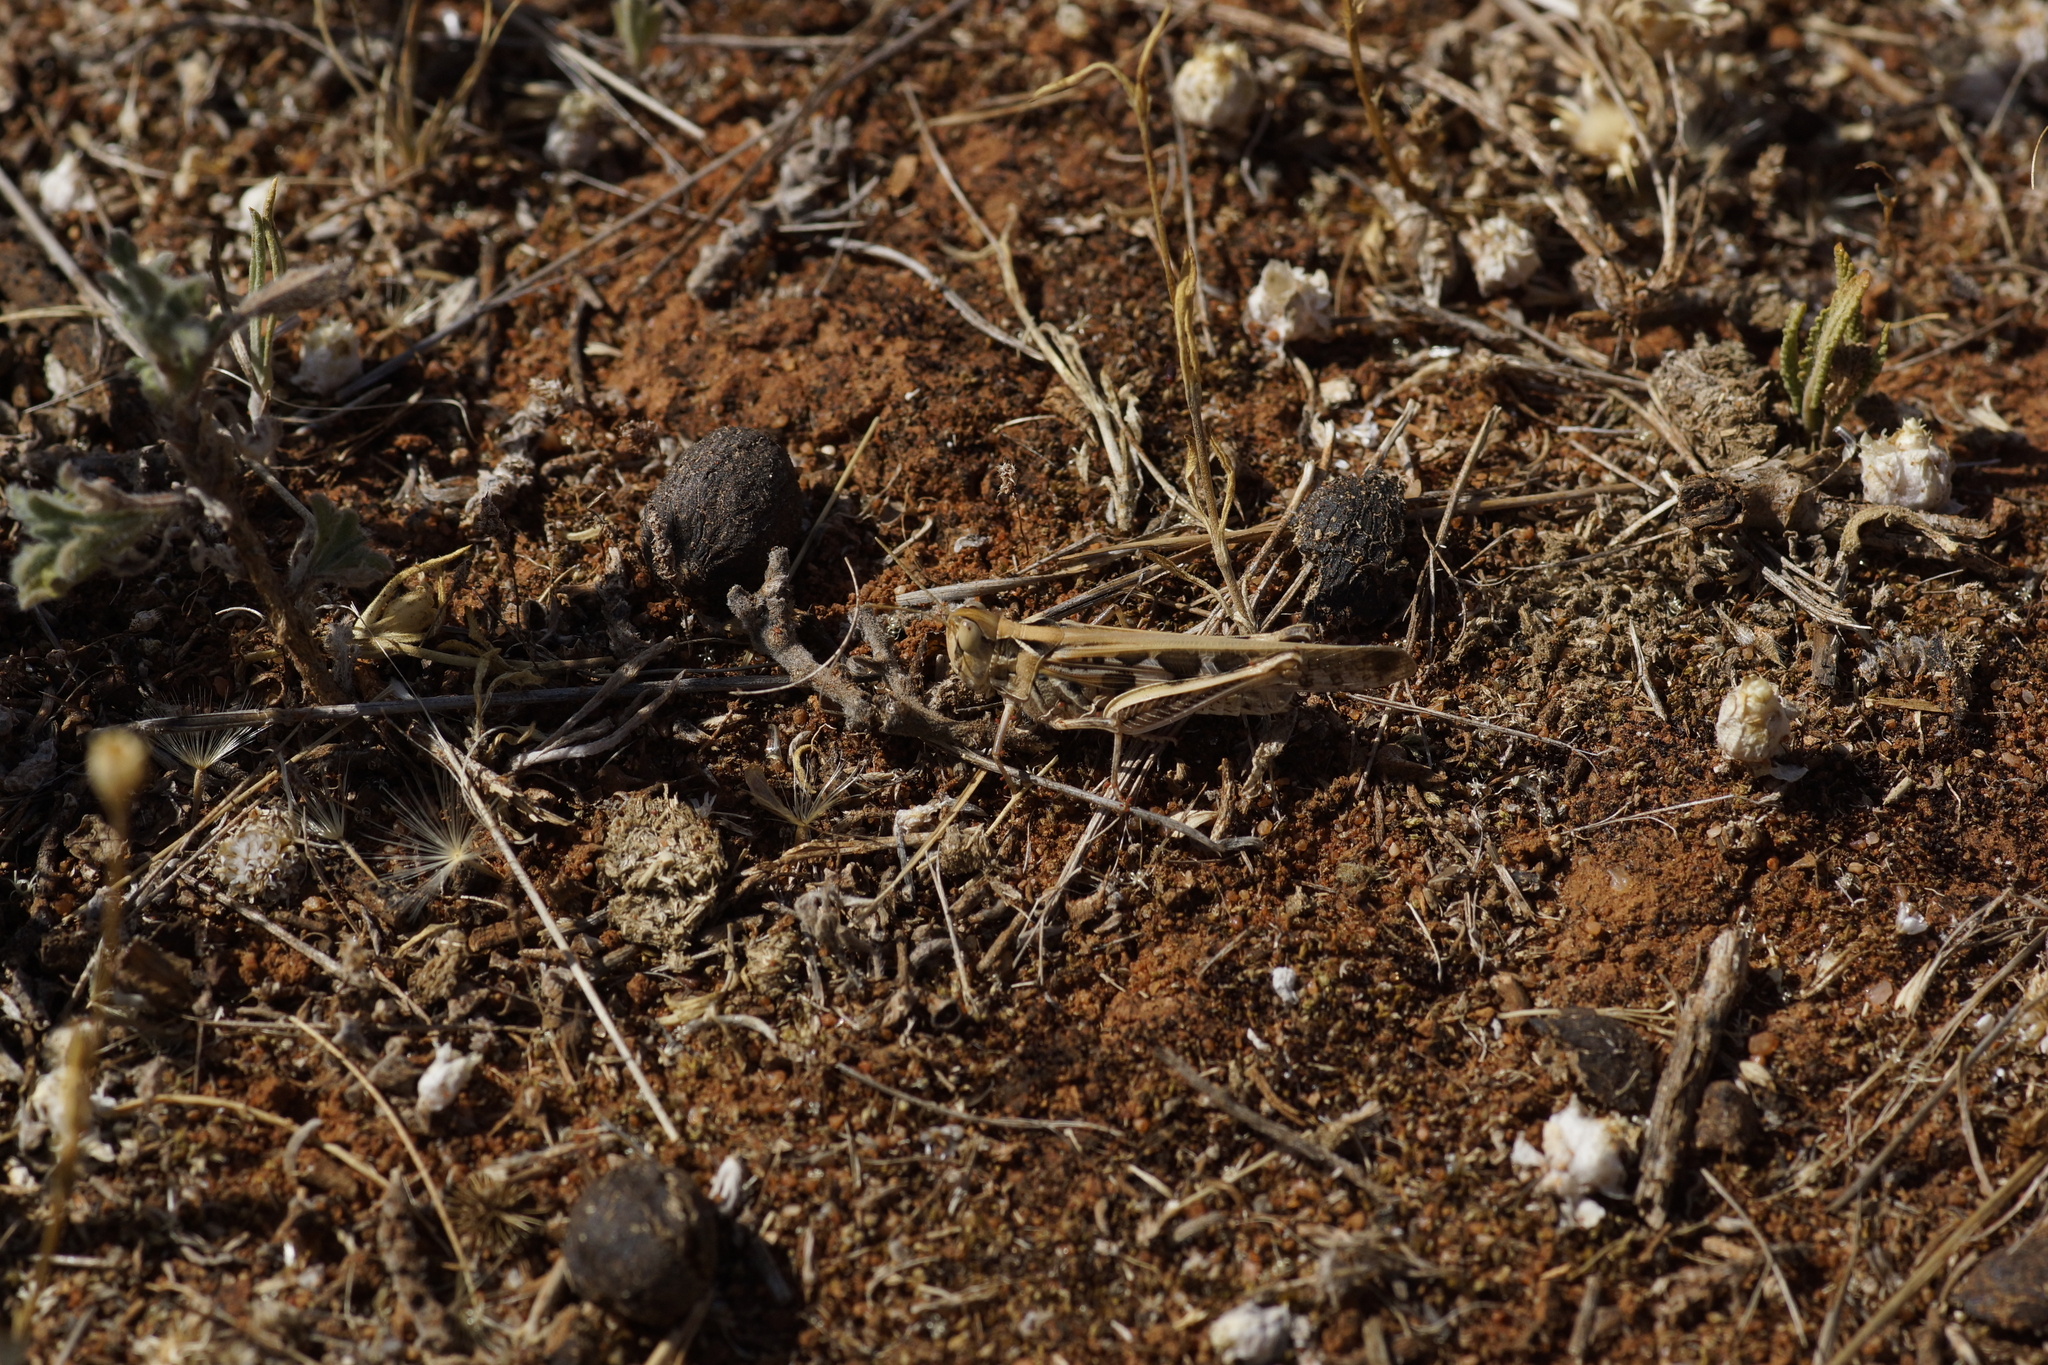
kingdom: Animalia
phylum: Arthropoda
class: Insecta
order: Orthoptera
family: Acrididae
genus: Chortoicetes
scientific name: Chortoicetes terminifera
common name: Australian plague locust
